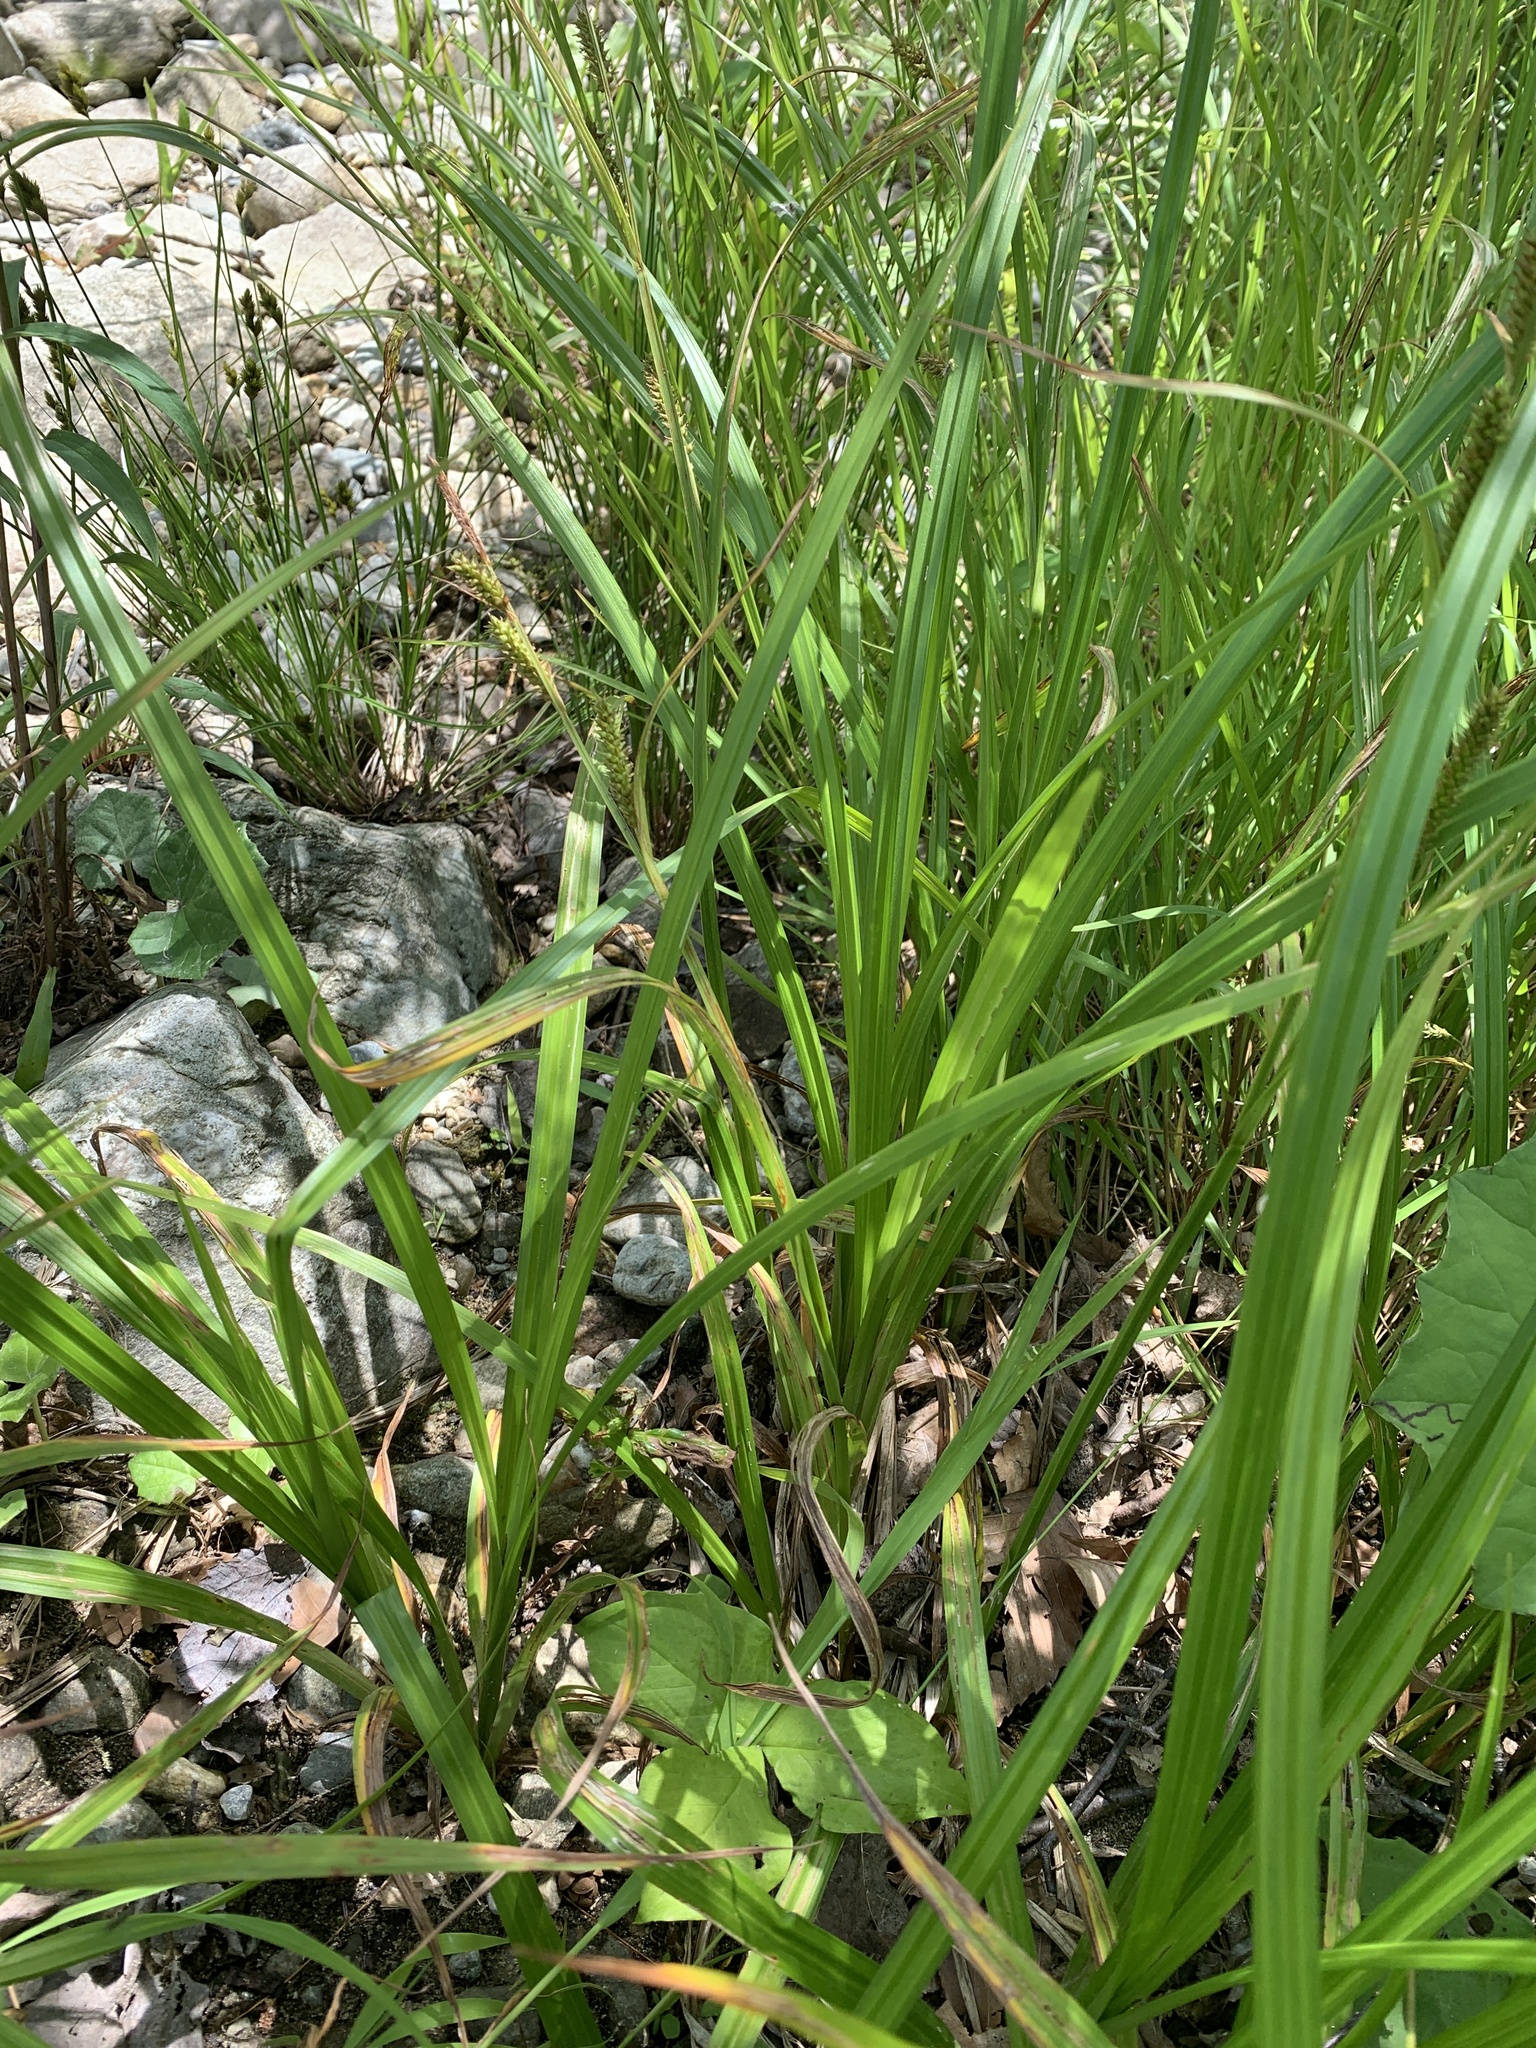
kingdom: Plantae
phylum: Tracheophyta
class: Liliopsida
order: Poales
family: Cyperaceae
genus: Carex
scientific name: Carex scabrata
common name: Eastern rough sedge
